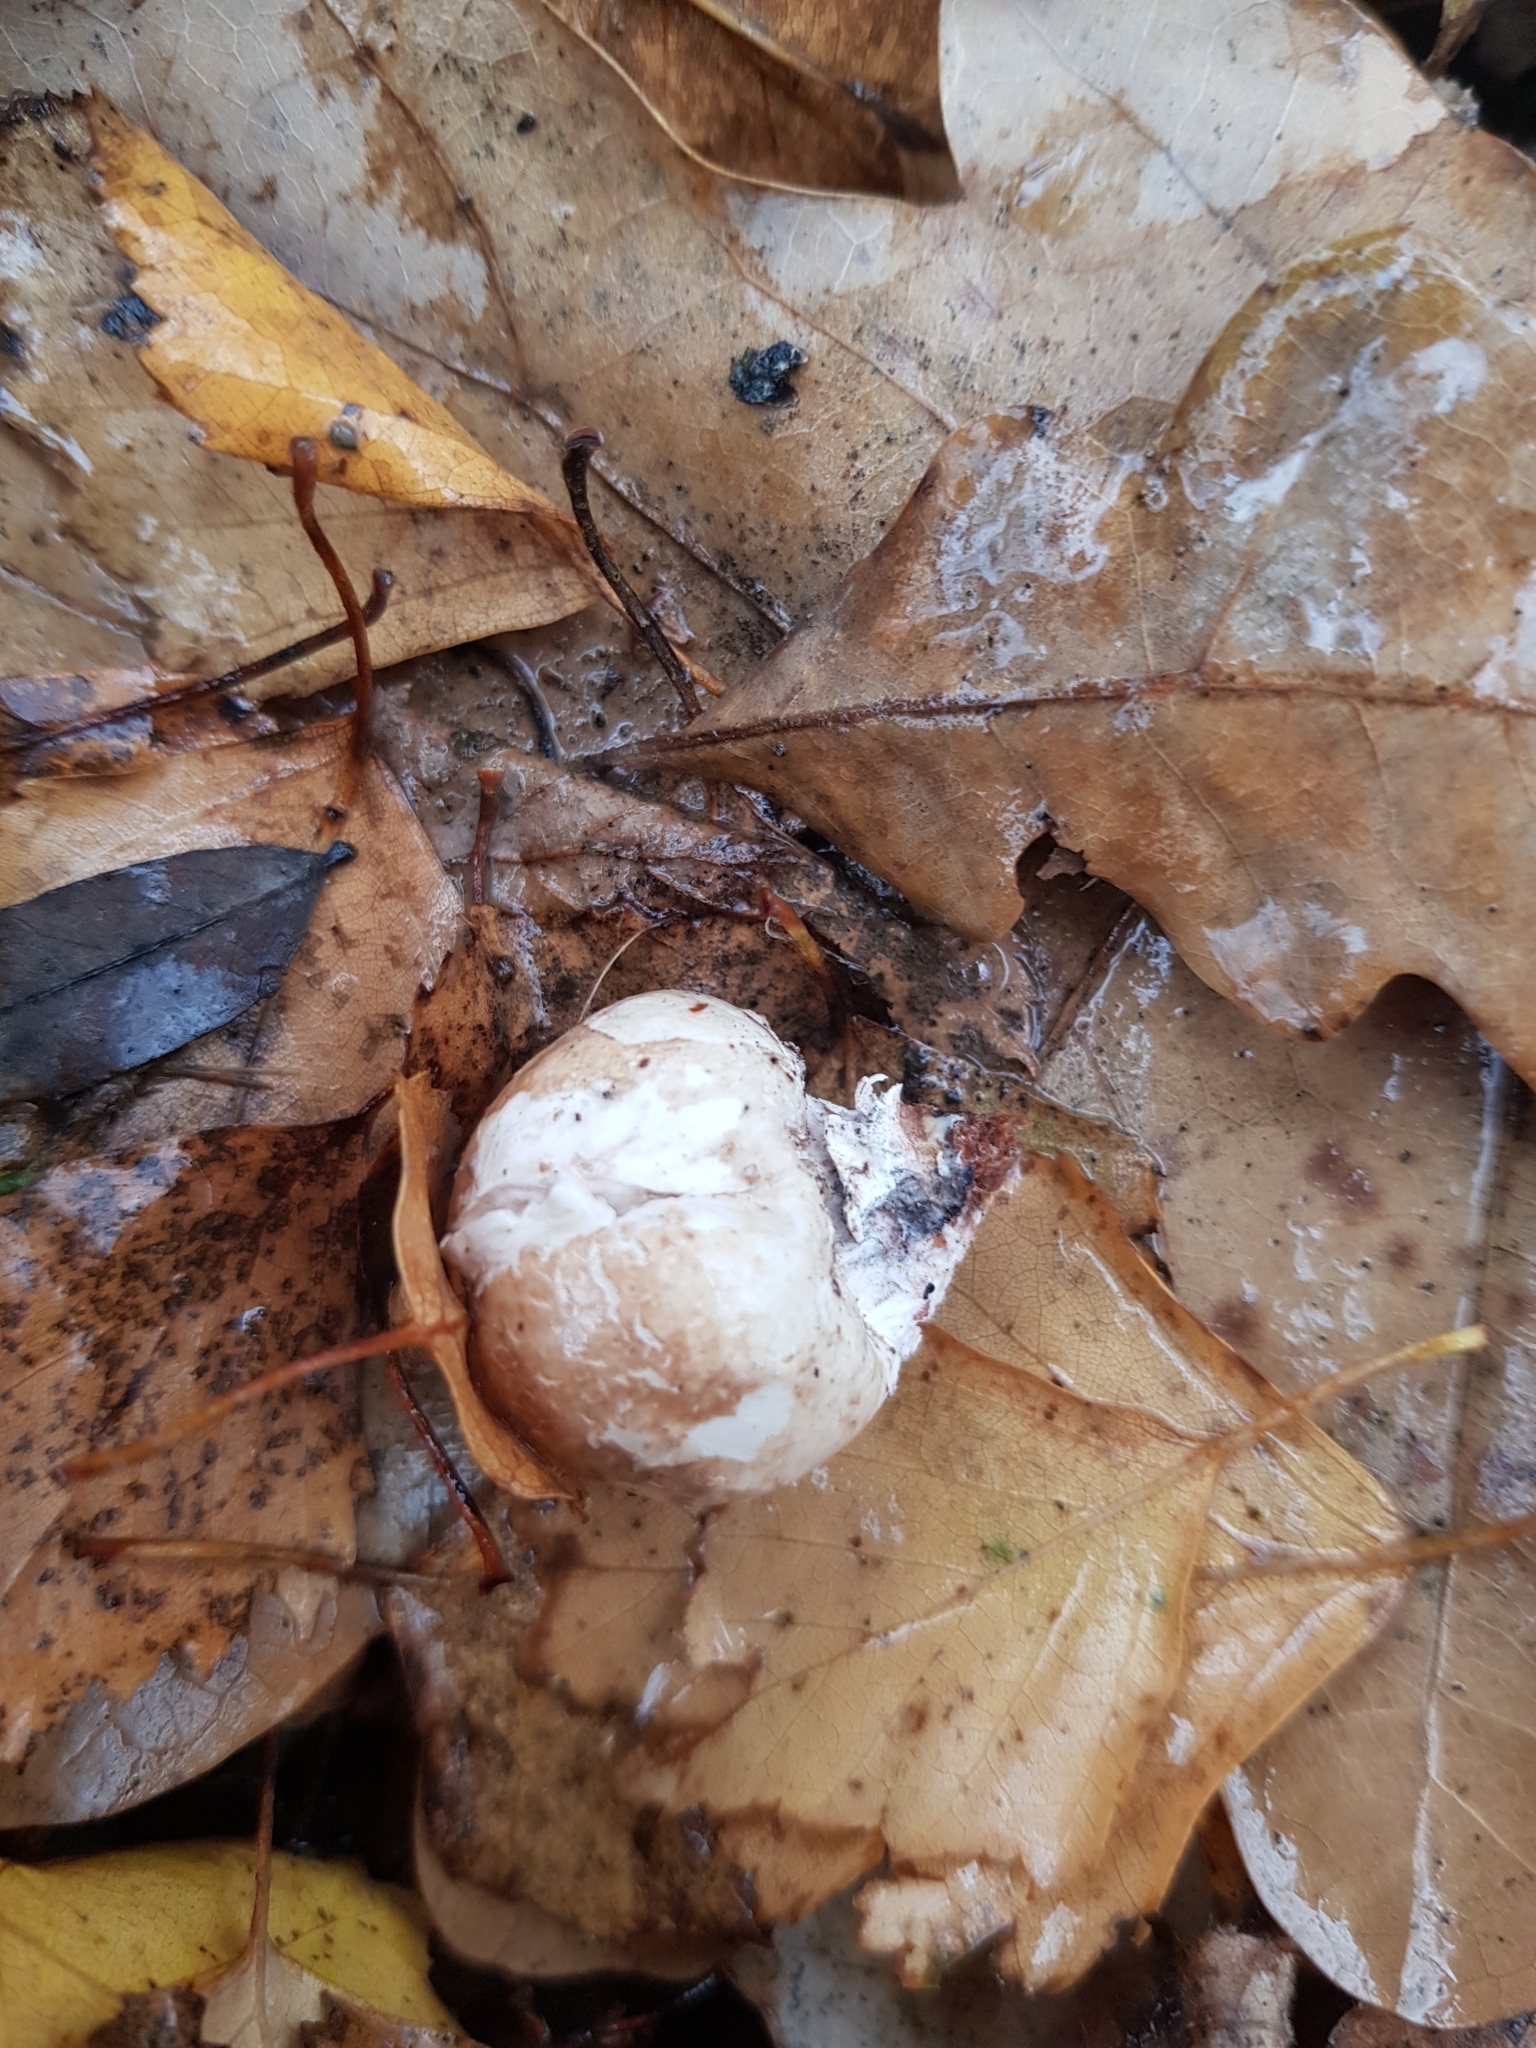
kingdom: Fungi
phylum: Basidiomycota
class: Agaricomycetes
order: Polyporales
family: Fomitopsidaceae
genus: Fomitopsis
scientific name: Fomitopsis betulina
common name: Birch polypore
